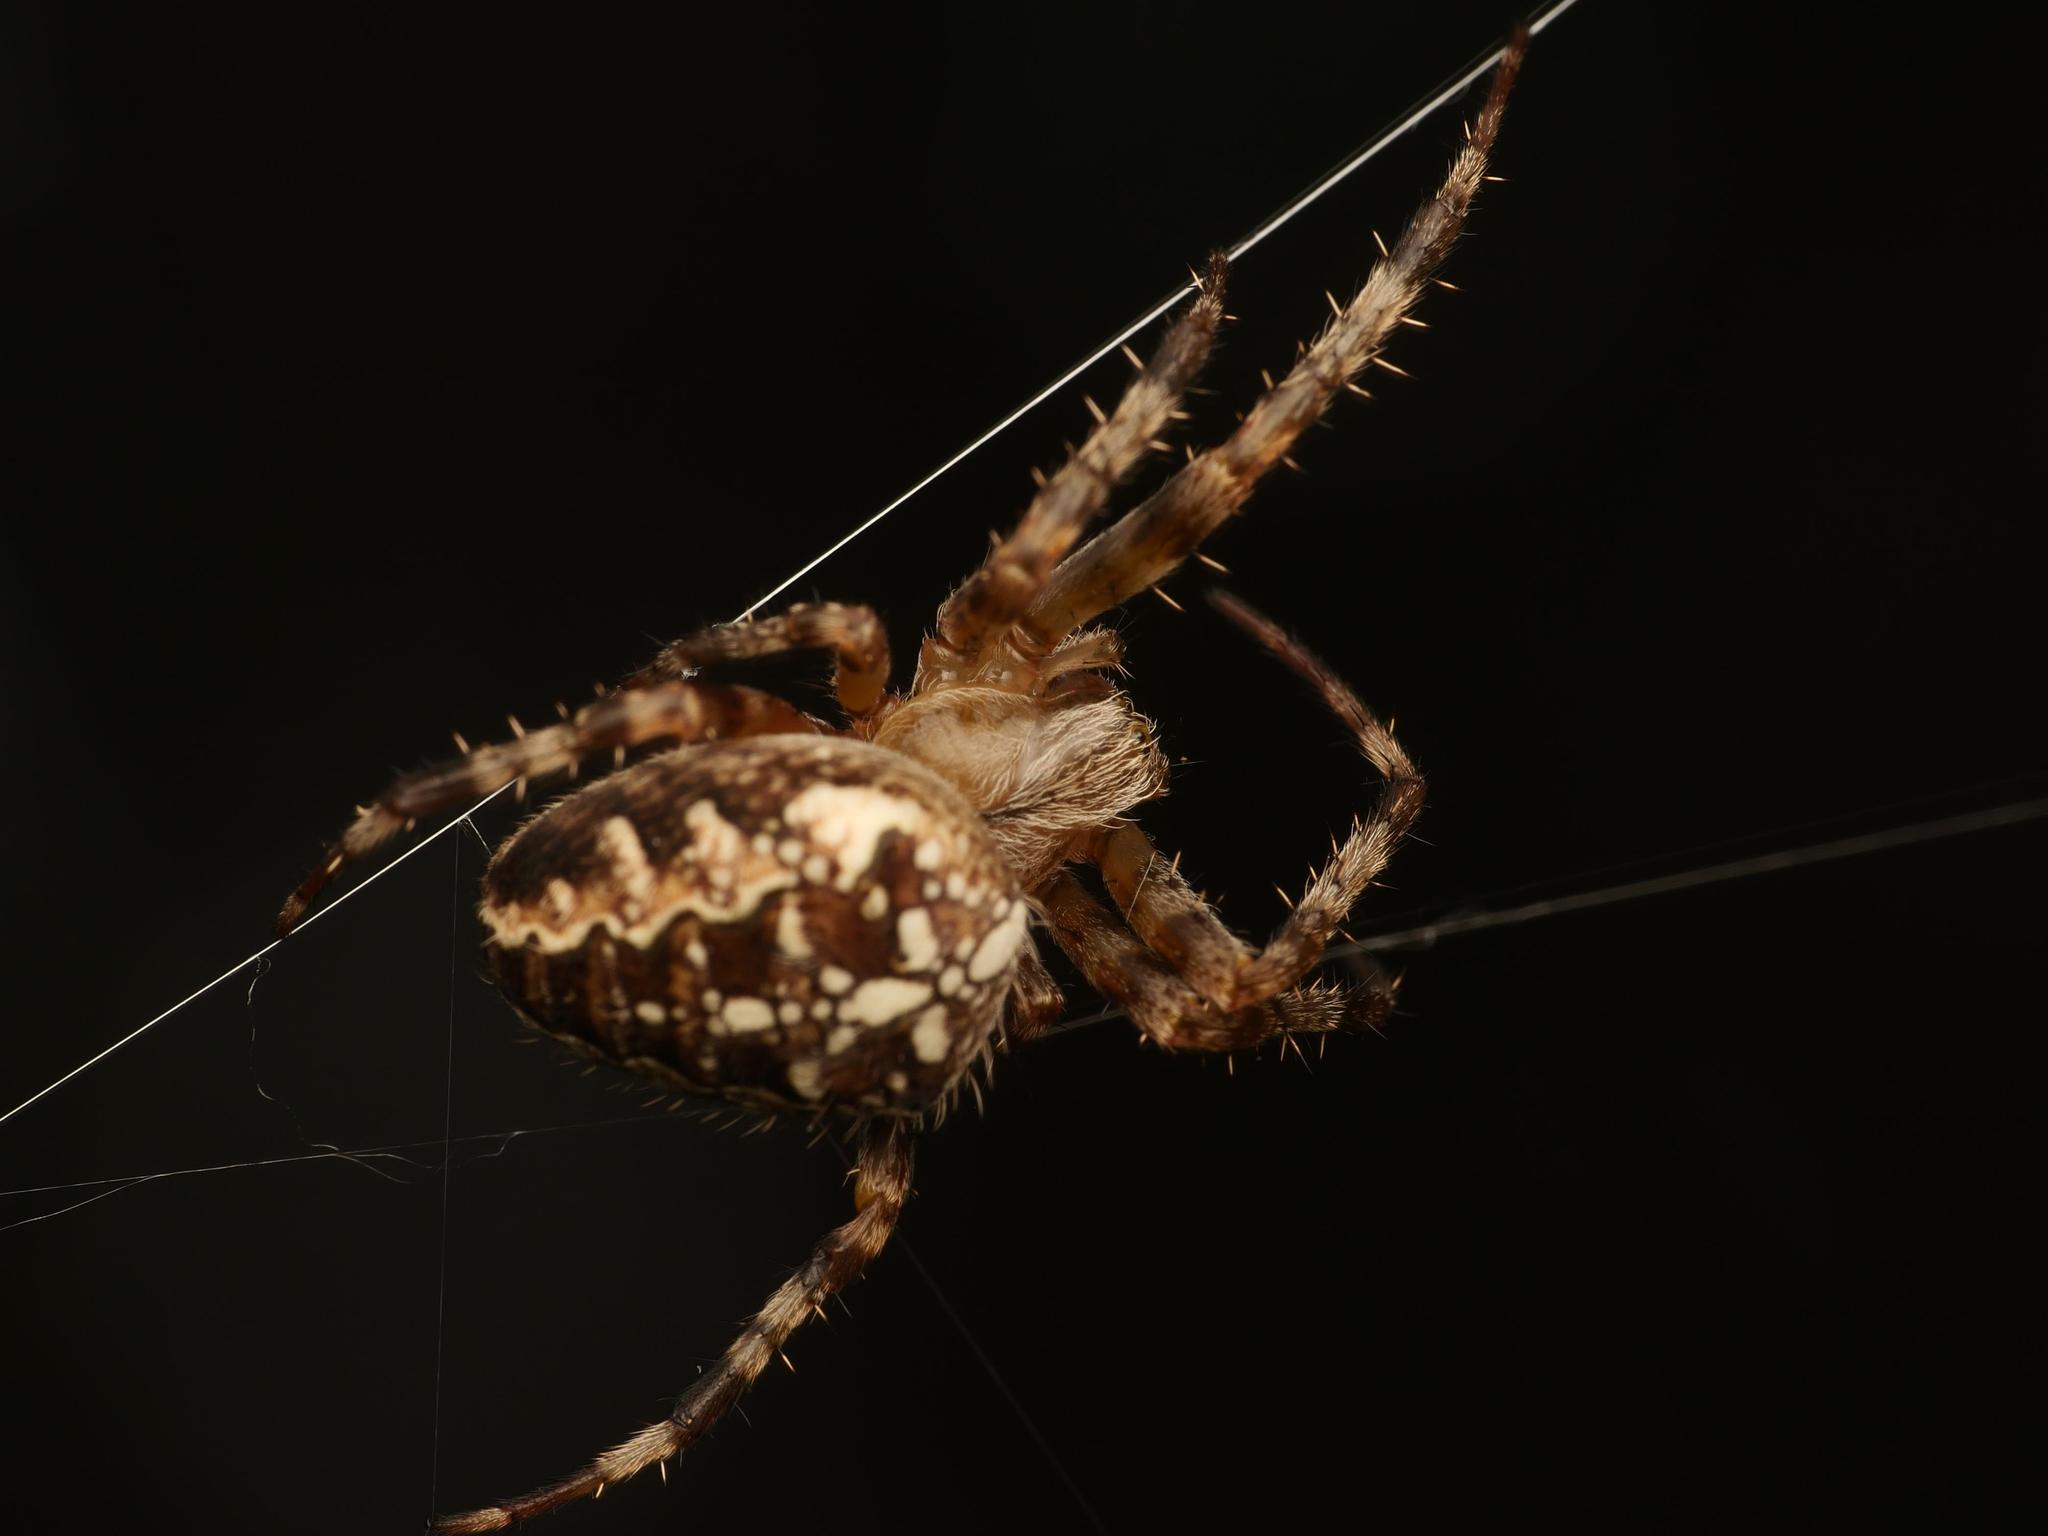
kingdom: Animalia
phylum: Arthropoda
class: Arachnida
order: Araneae
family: Araneidae
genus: Araneus
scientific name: Araneus diadematus
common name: Cross orbweaver
